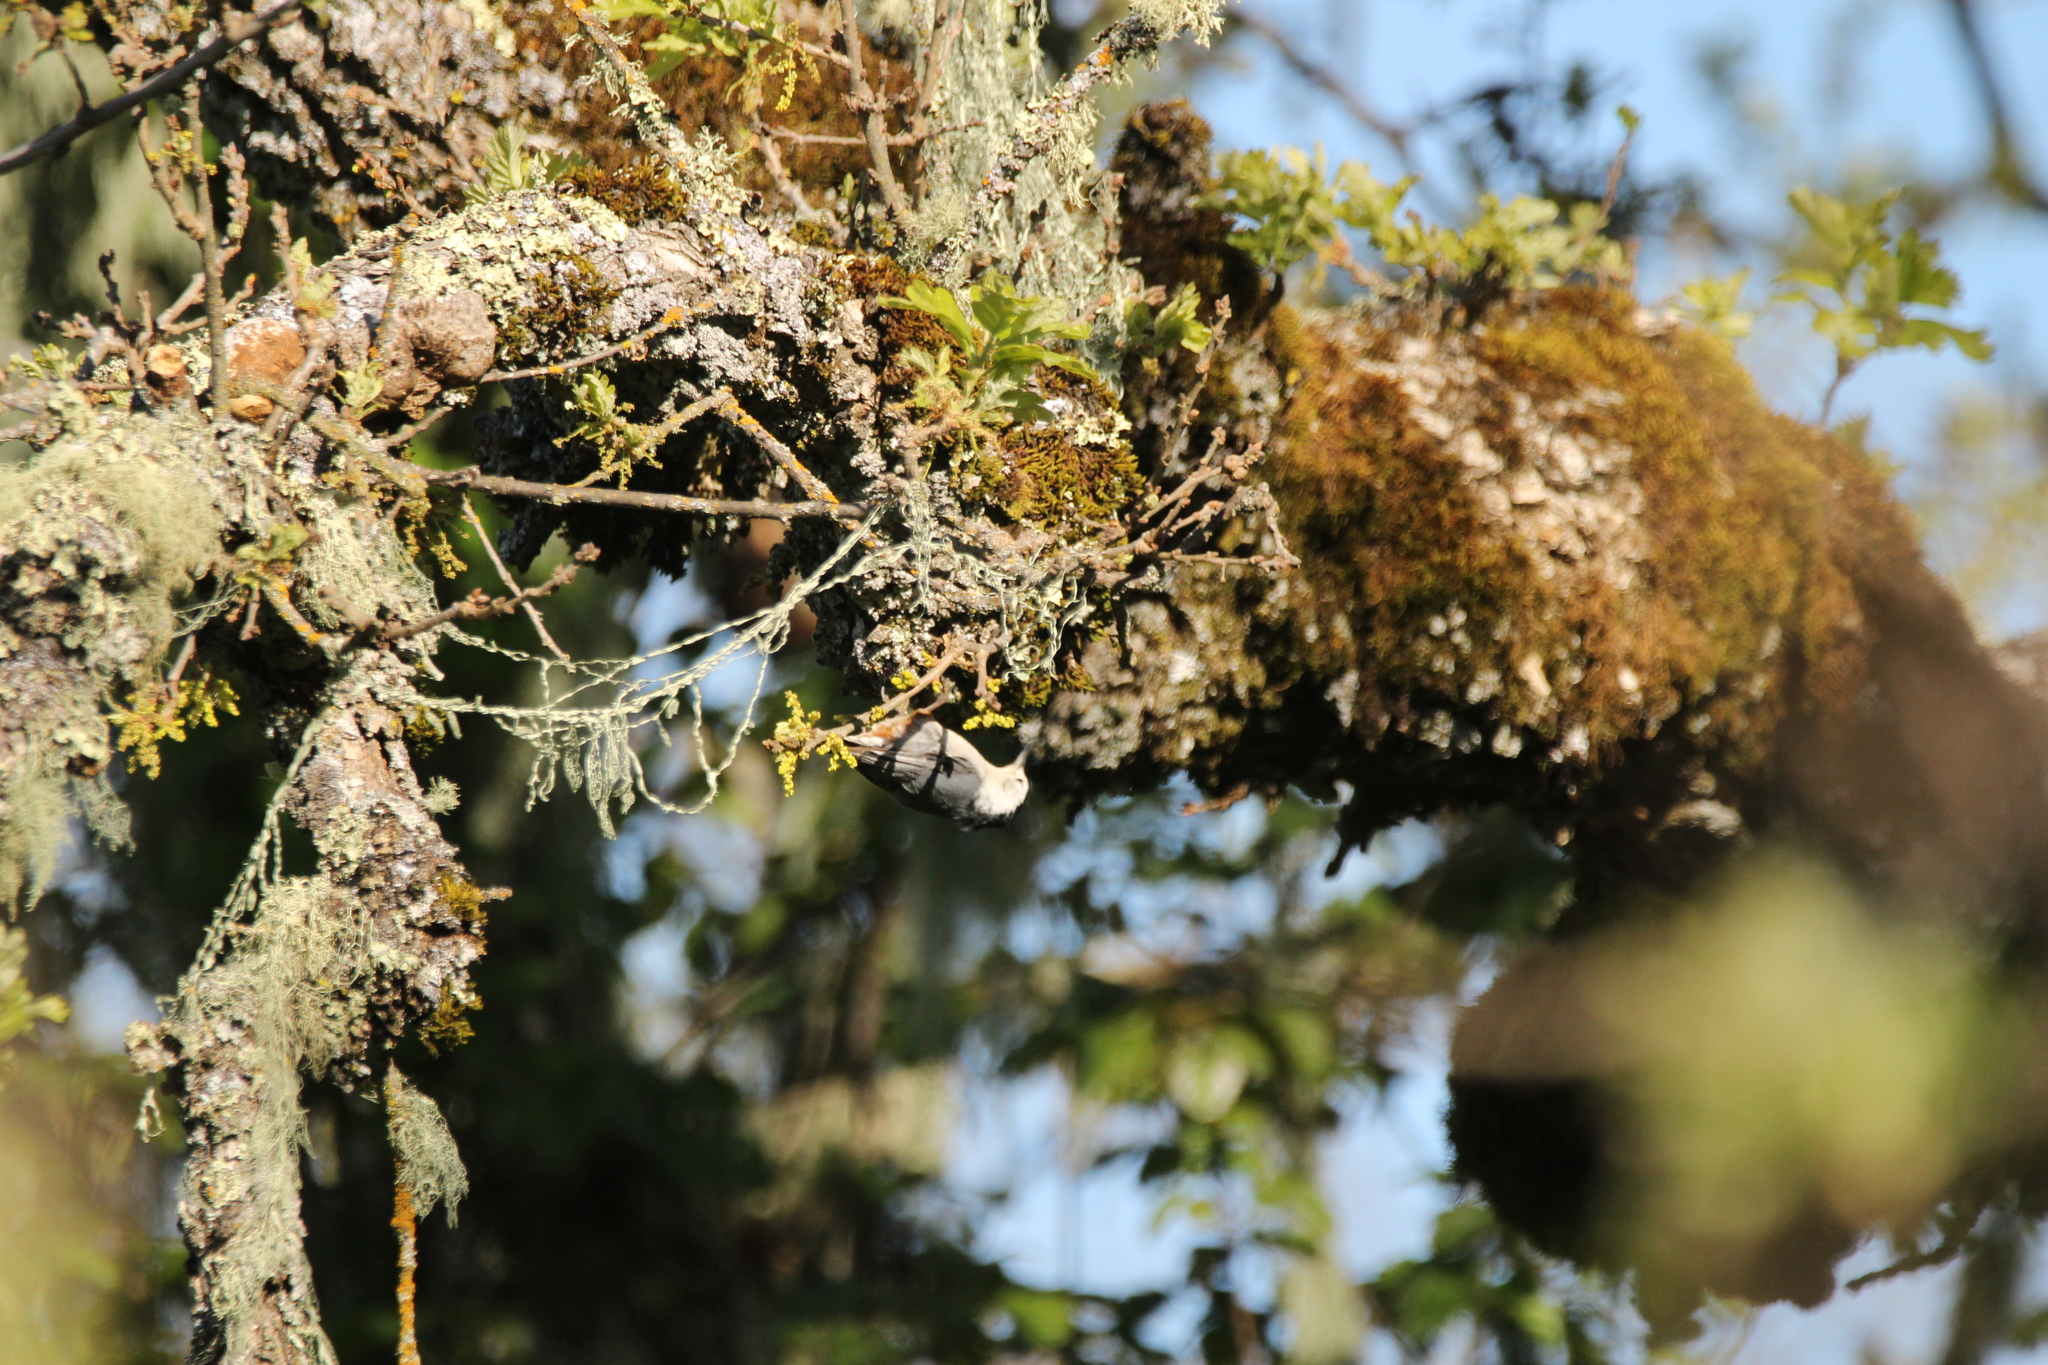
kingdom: Animalia
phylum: Chordata
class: Aves
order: Passeriformes
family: Sittidae
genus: Sitta
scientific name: Sitta carolinensis
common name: White-breasted nuthatch
